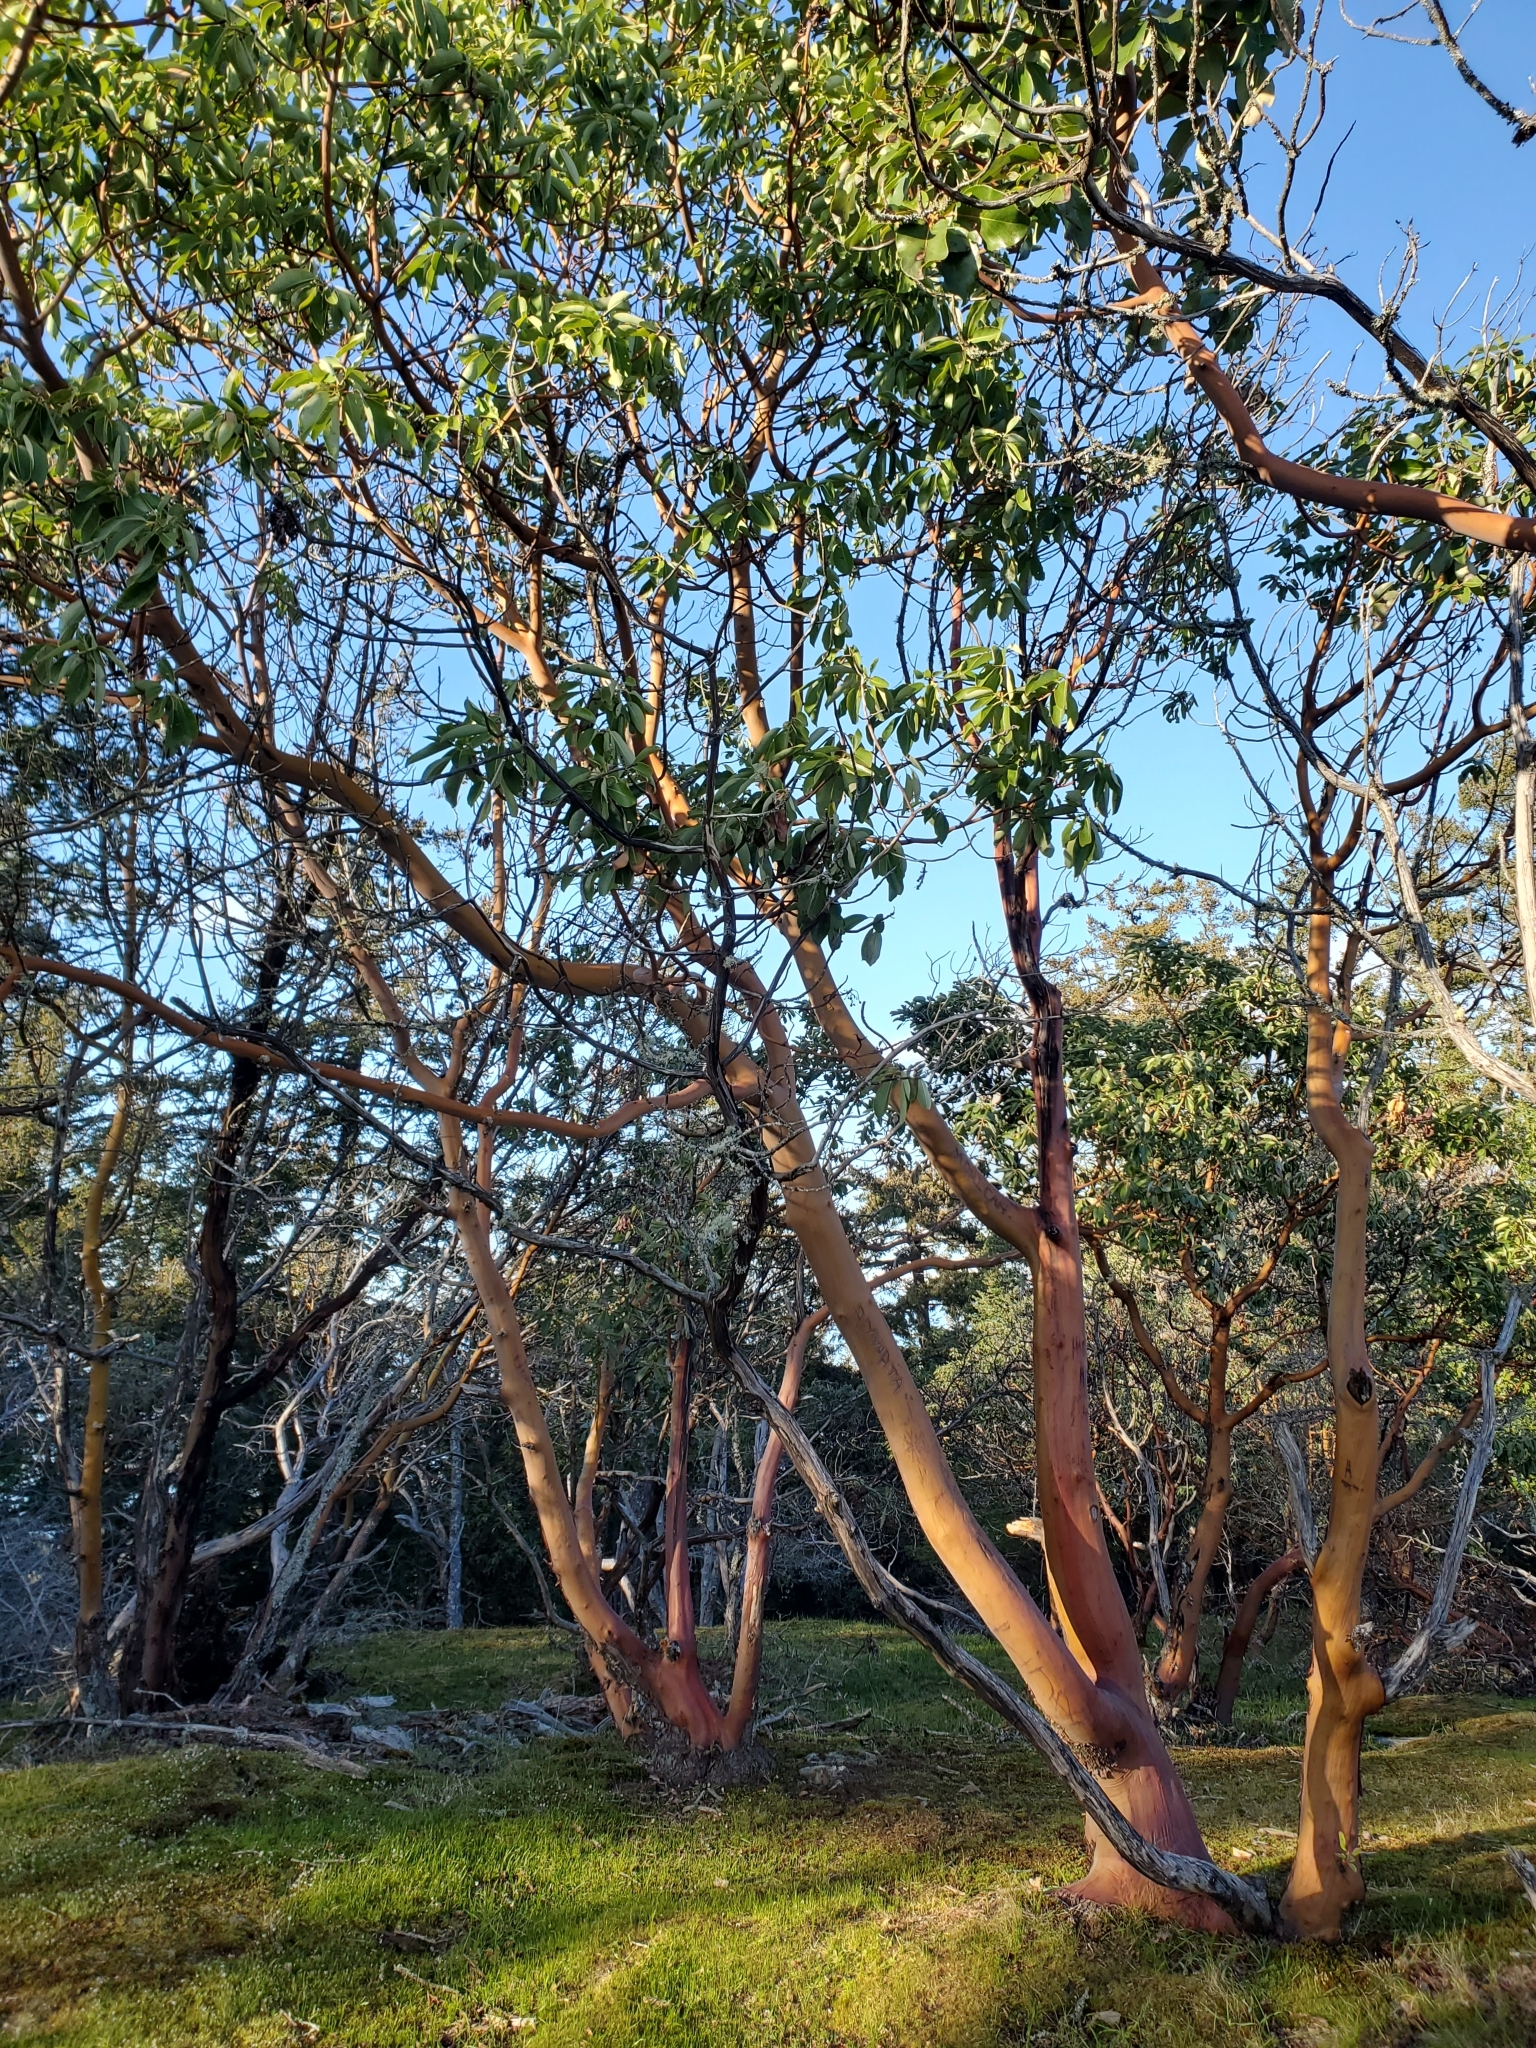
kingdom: Plantae
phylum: Tracheophyta
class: Magnoliopsida
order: Ericales
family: Ericaceae
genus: Arbutus
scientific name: Arbutus menziesii
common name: Pacific madrone
